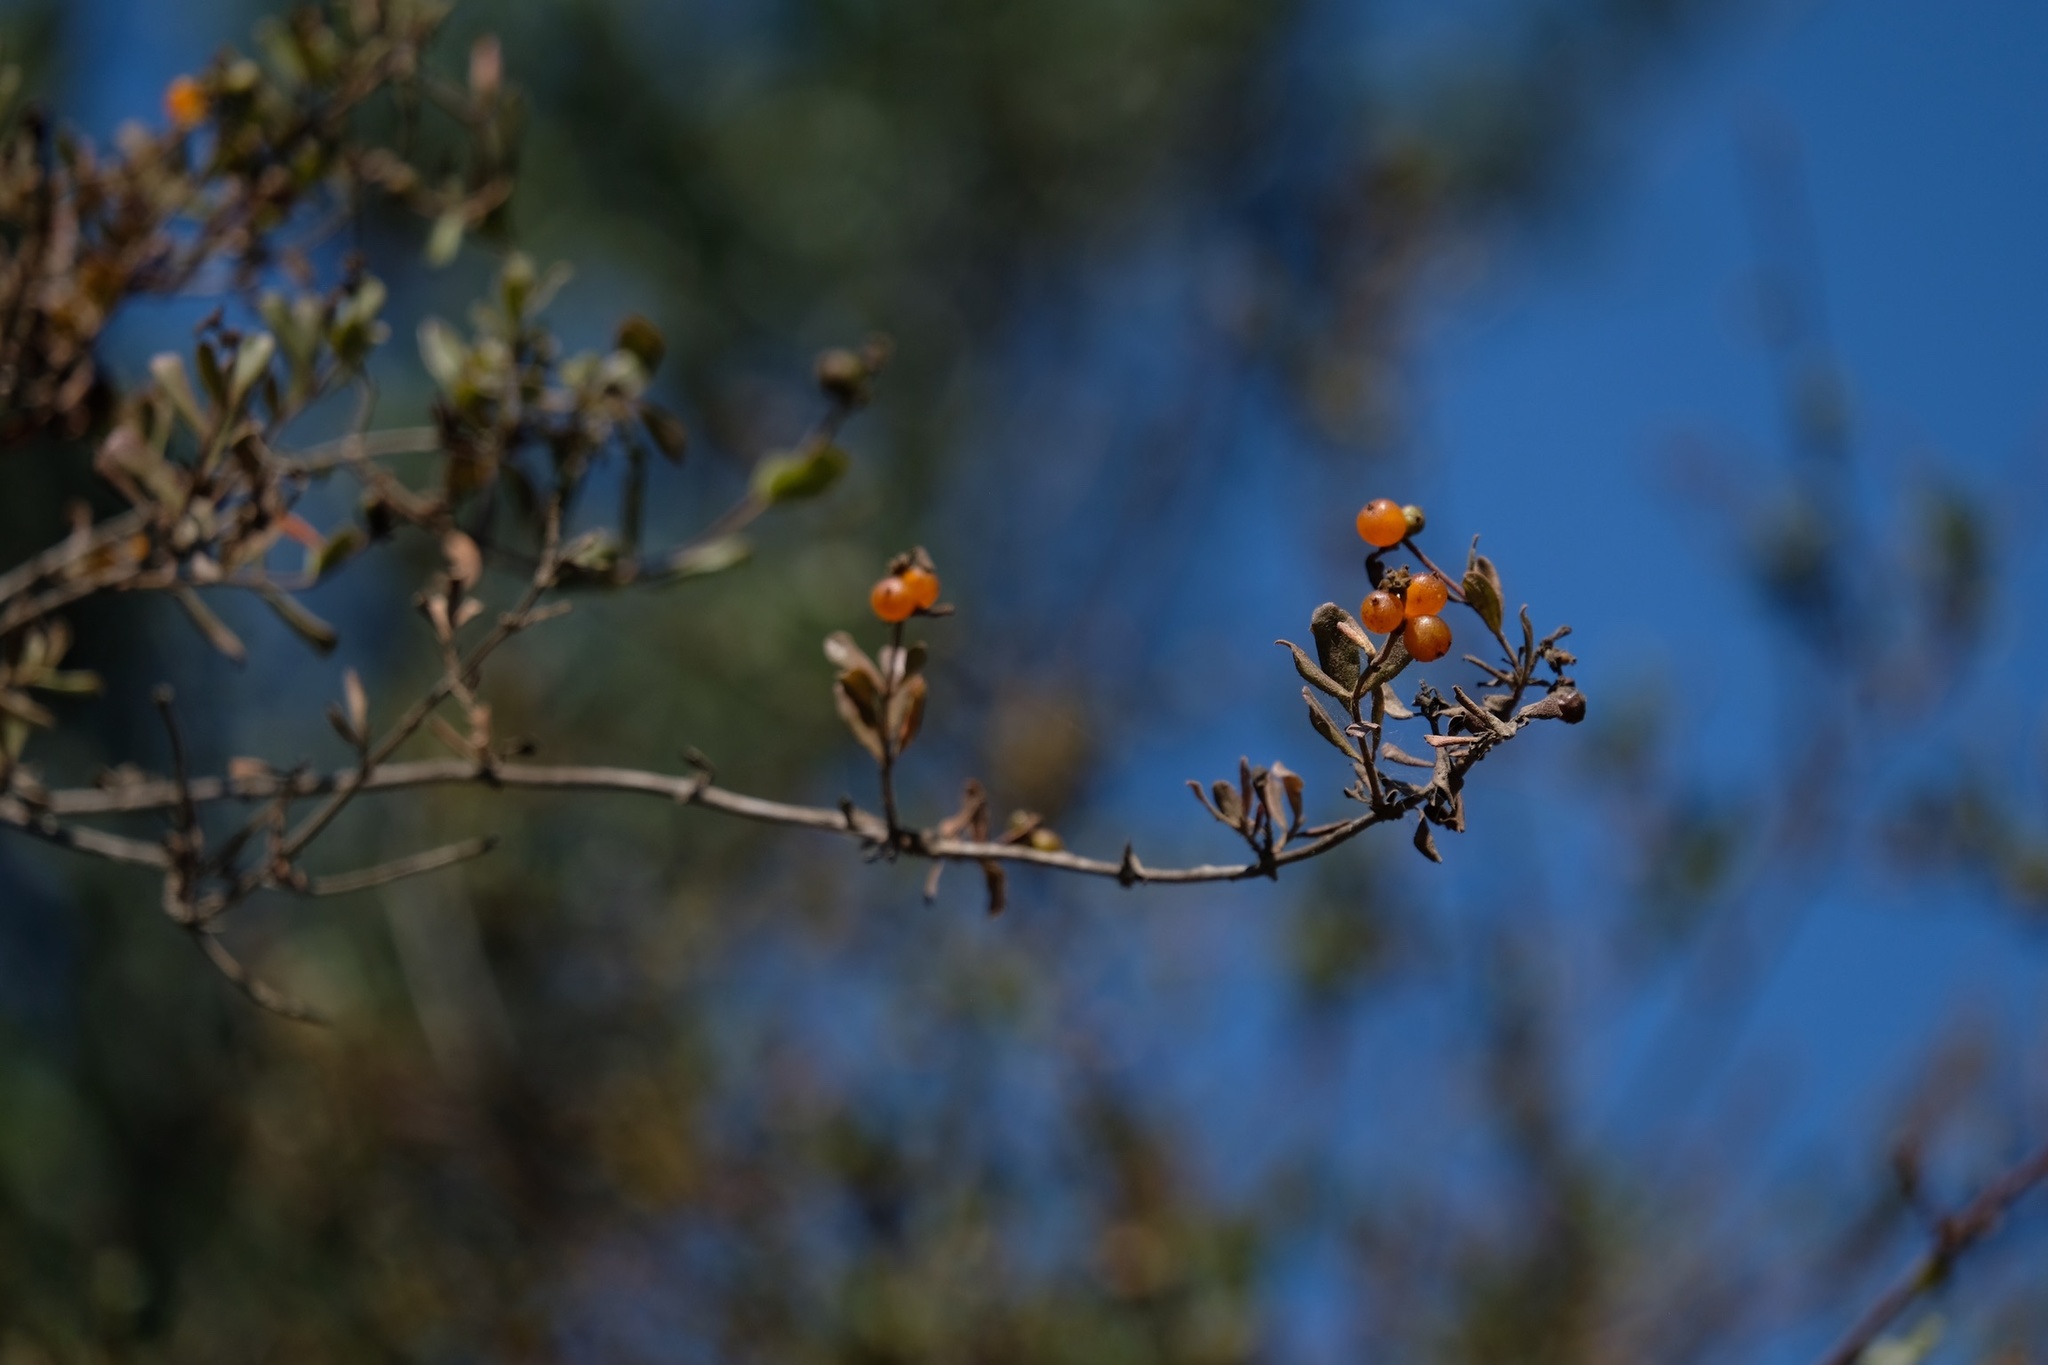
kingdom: Plantae
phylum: Tracheophyta
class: Magnoliopsida
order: Dipsacales
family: Caprifoliaceae
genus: Lonicera
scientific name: Lonicera subspicata
